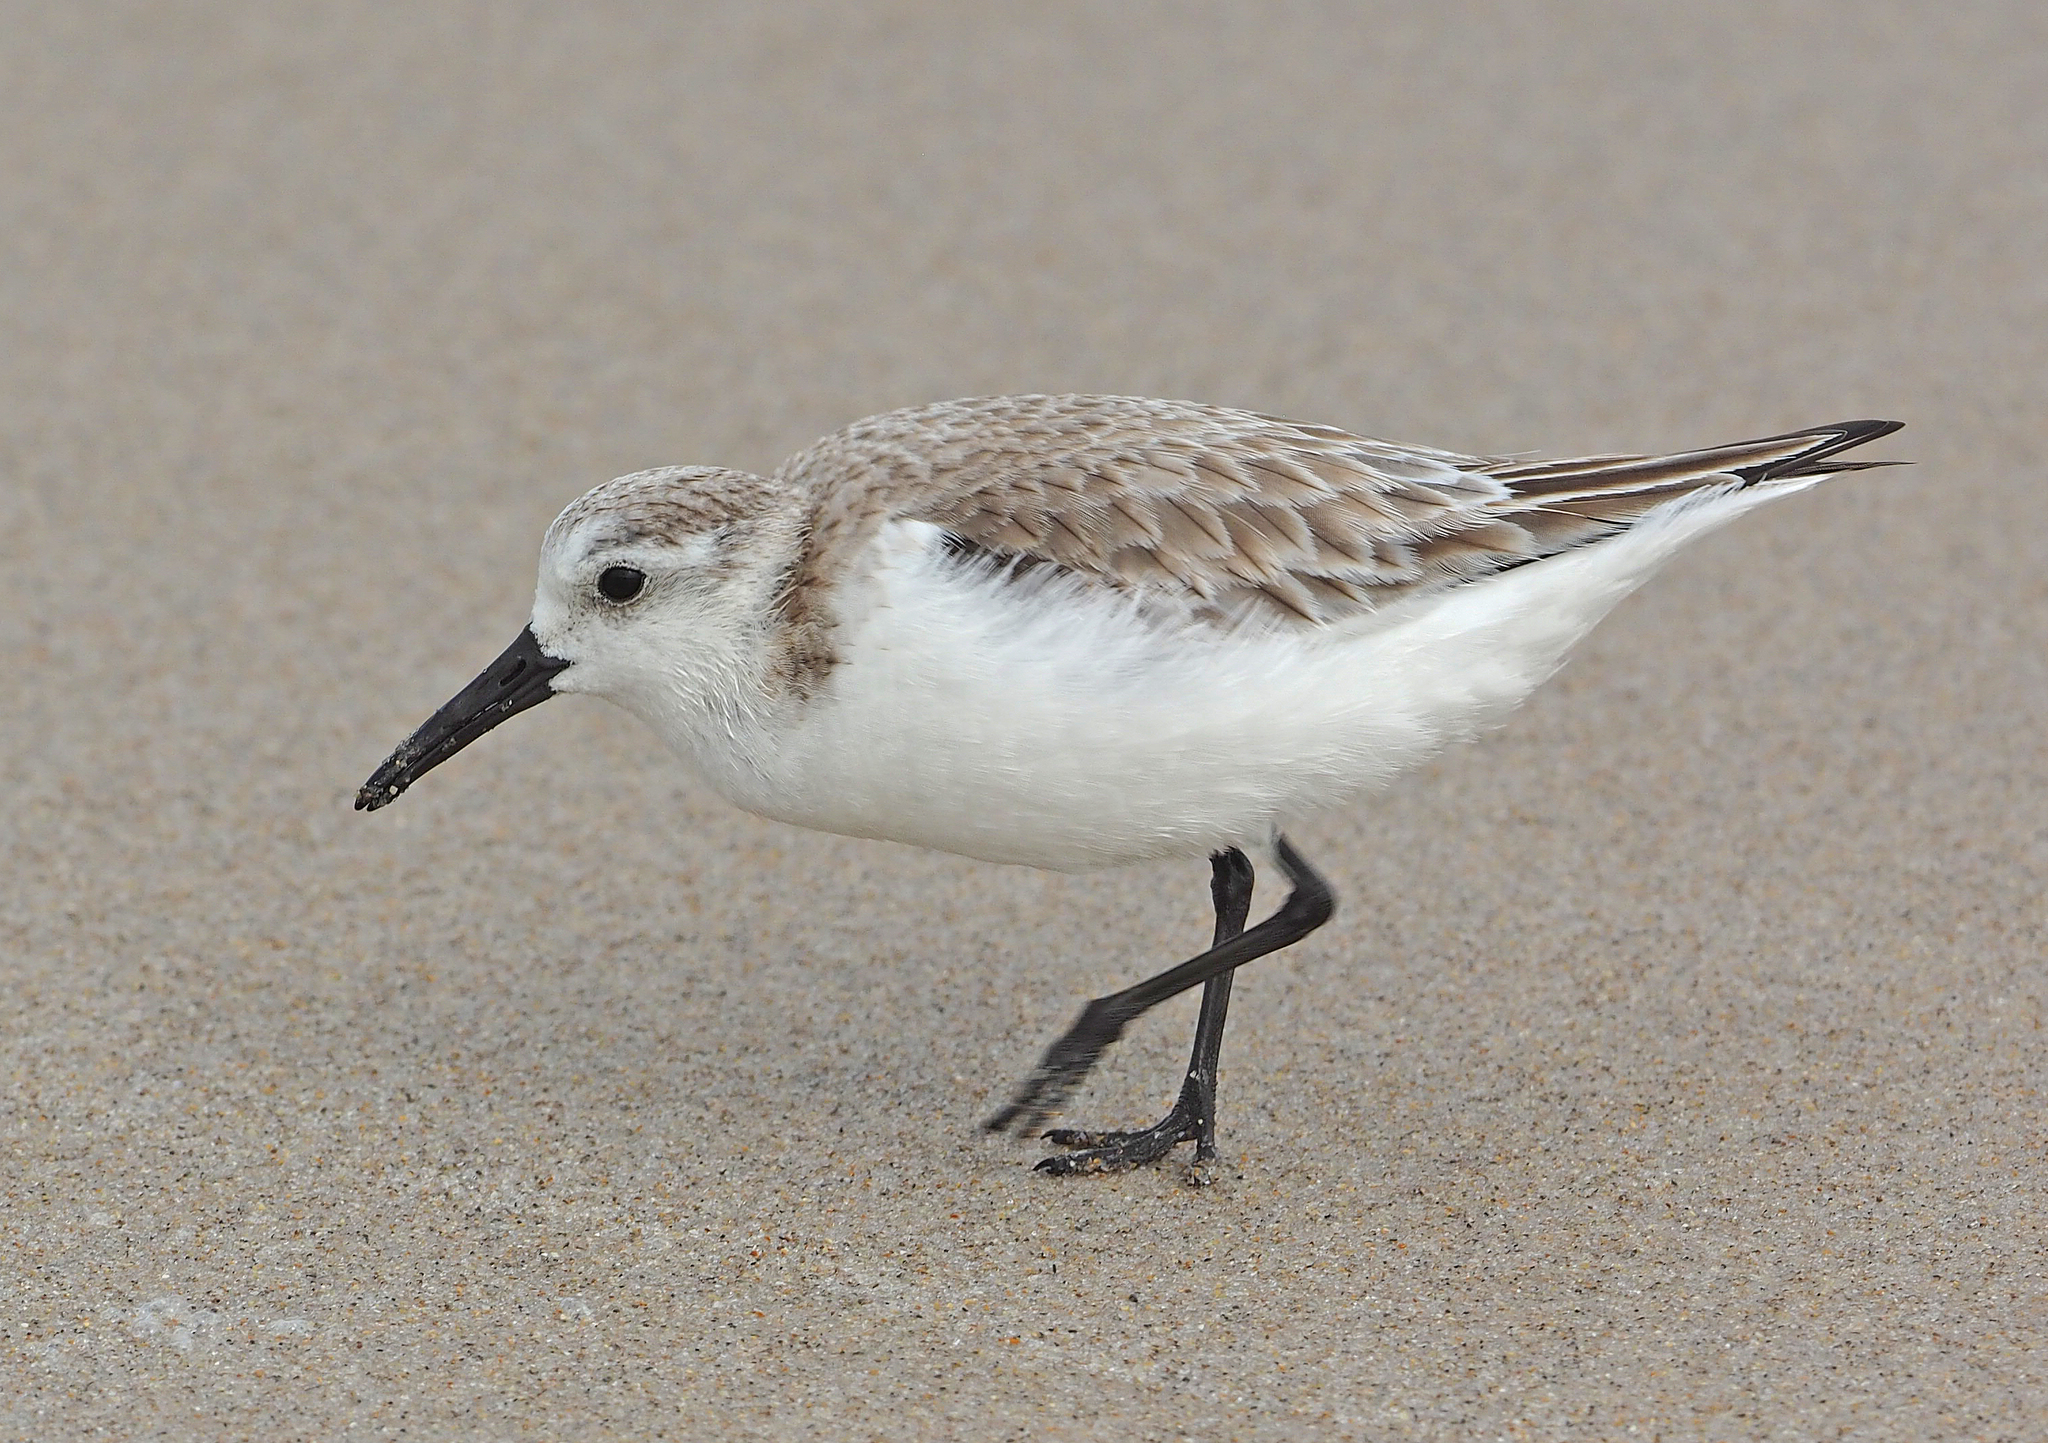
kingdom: Animalia
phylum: Chordata
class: Aves
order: Charadriiformes
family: Scolopacidae
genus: Calidris
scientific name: Calidris alba
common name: Sanderling
